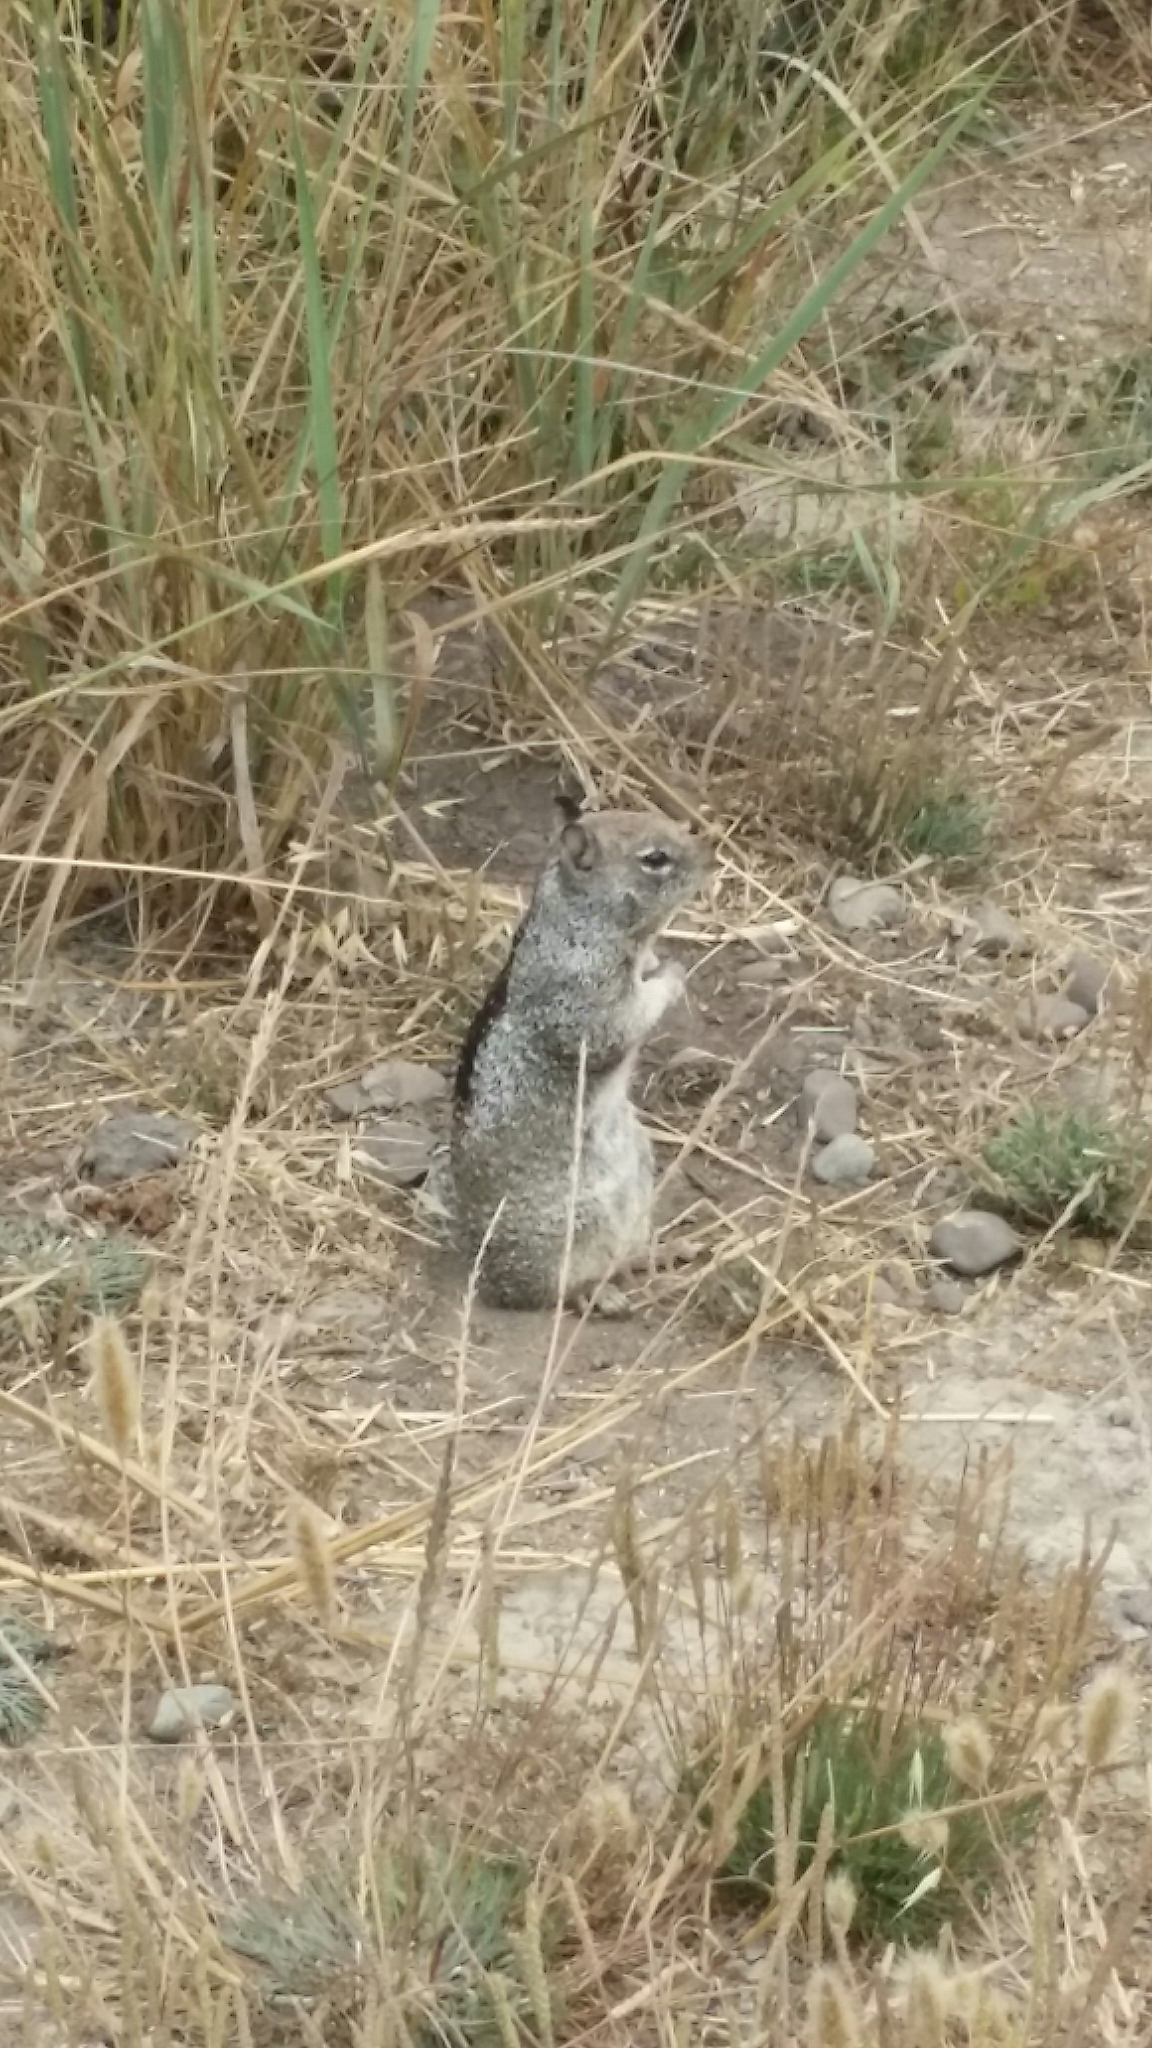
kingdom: Animalia
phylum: Chordata
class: Mammalia
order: Rodentia
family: Sciuridae
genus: Otospermophilus
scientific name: Otospermophilus beecheyi
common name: California ground squirrel
